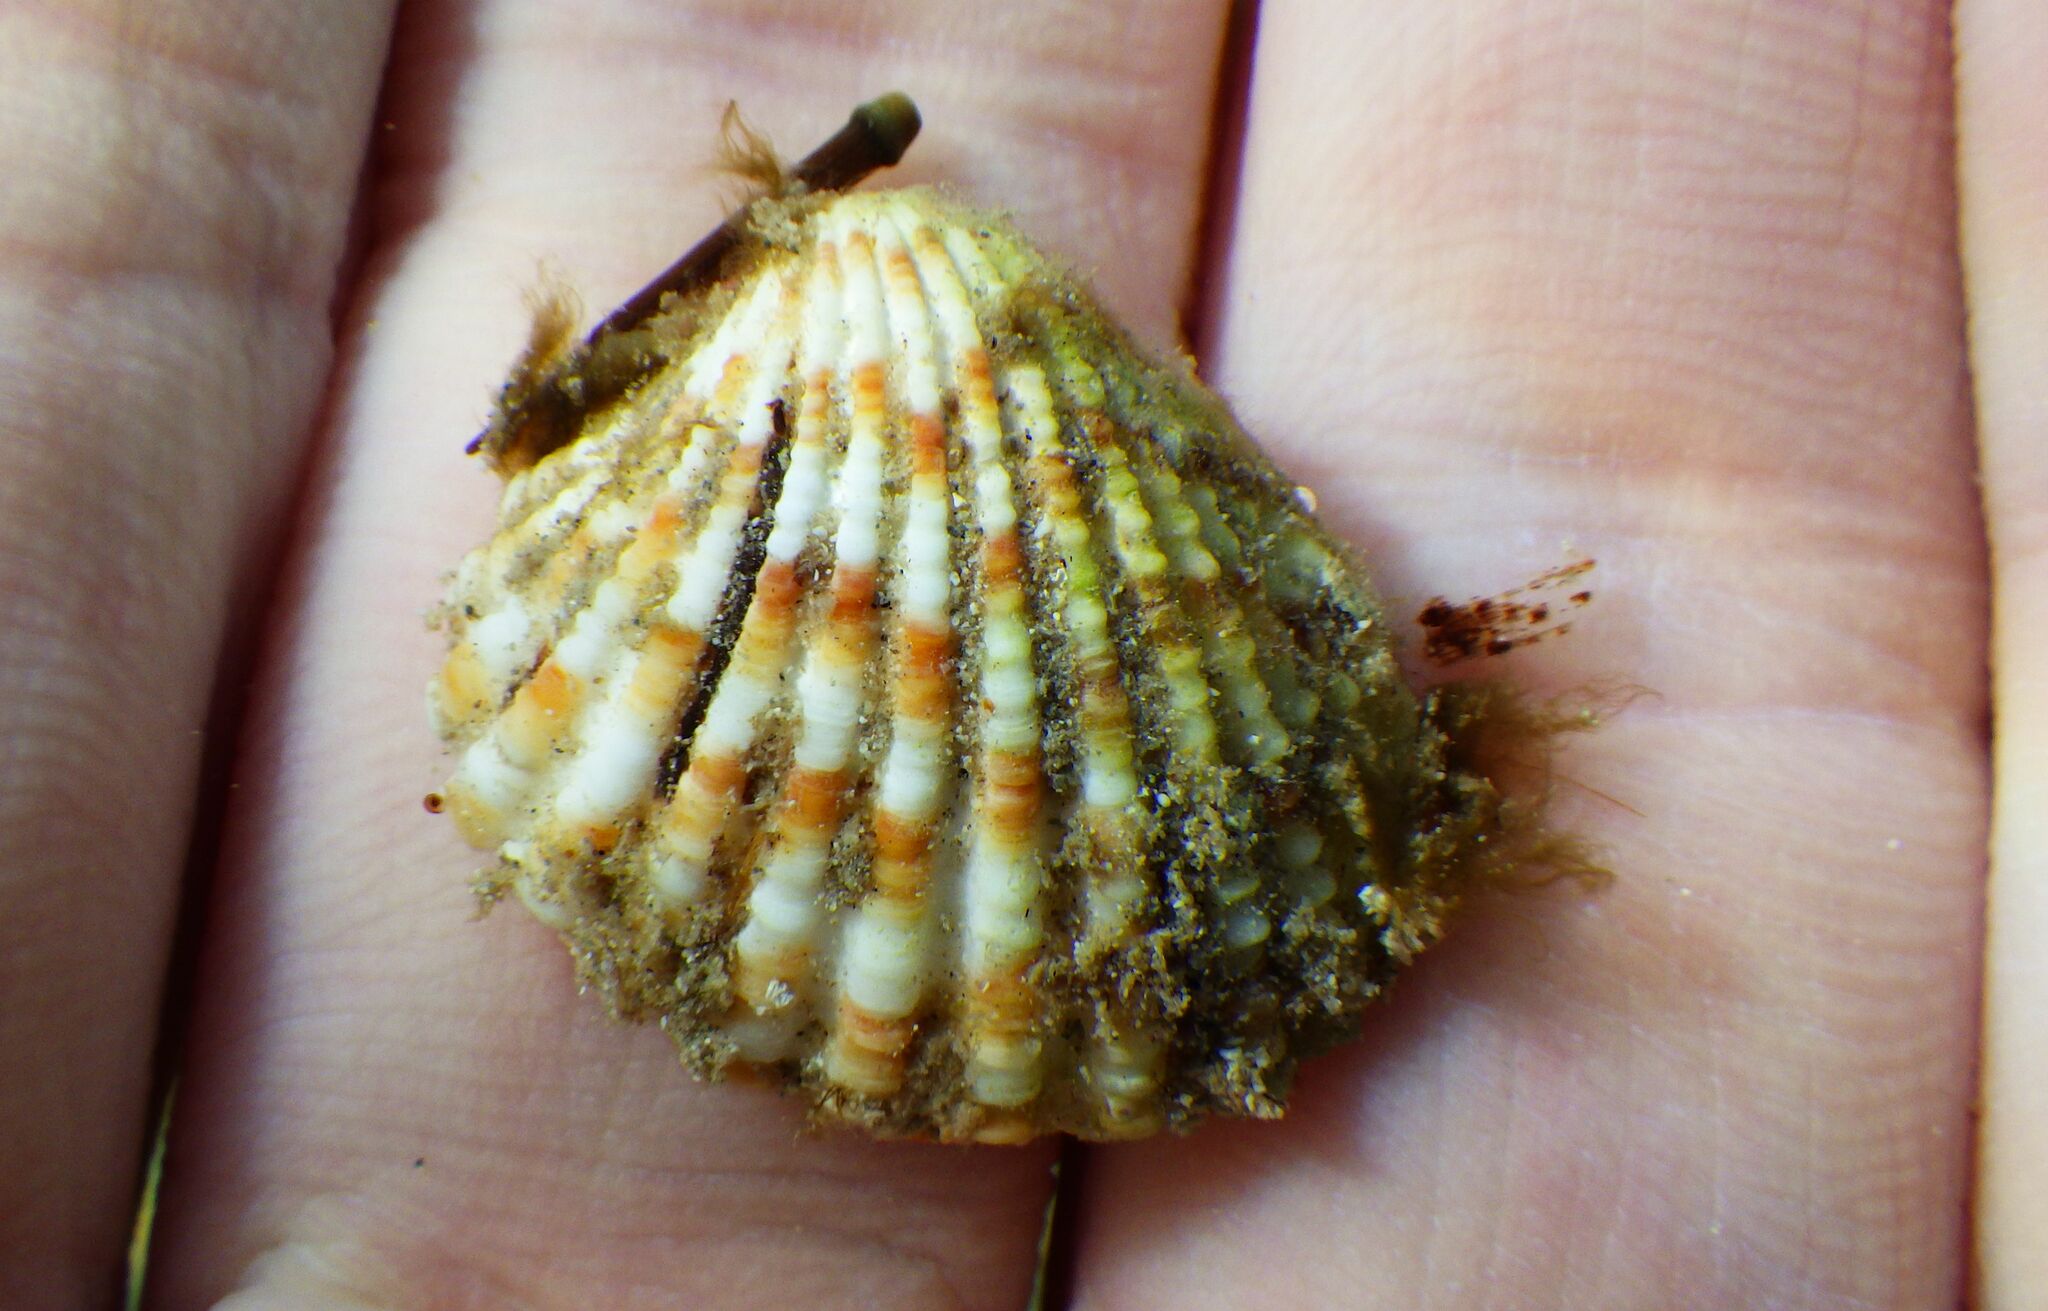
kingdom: Animalia
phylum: Mollusca
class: Bivalvia
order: Carditida
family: Carditidae
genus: Cardites
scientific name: Cardites antiquatus
